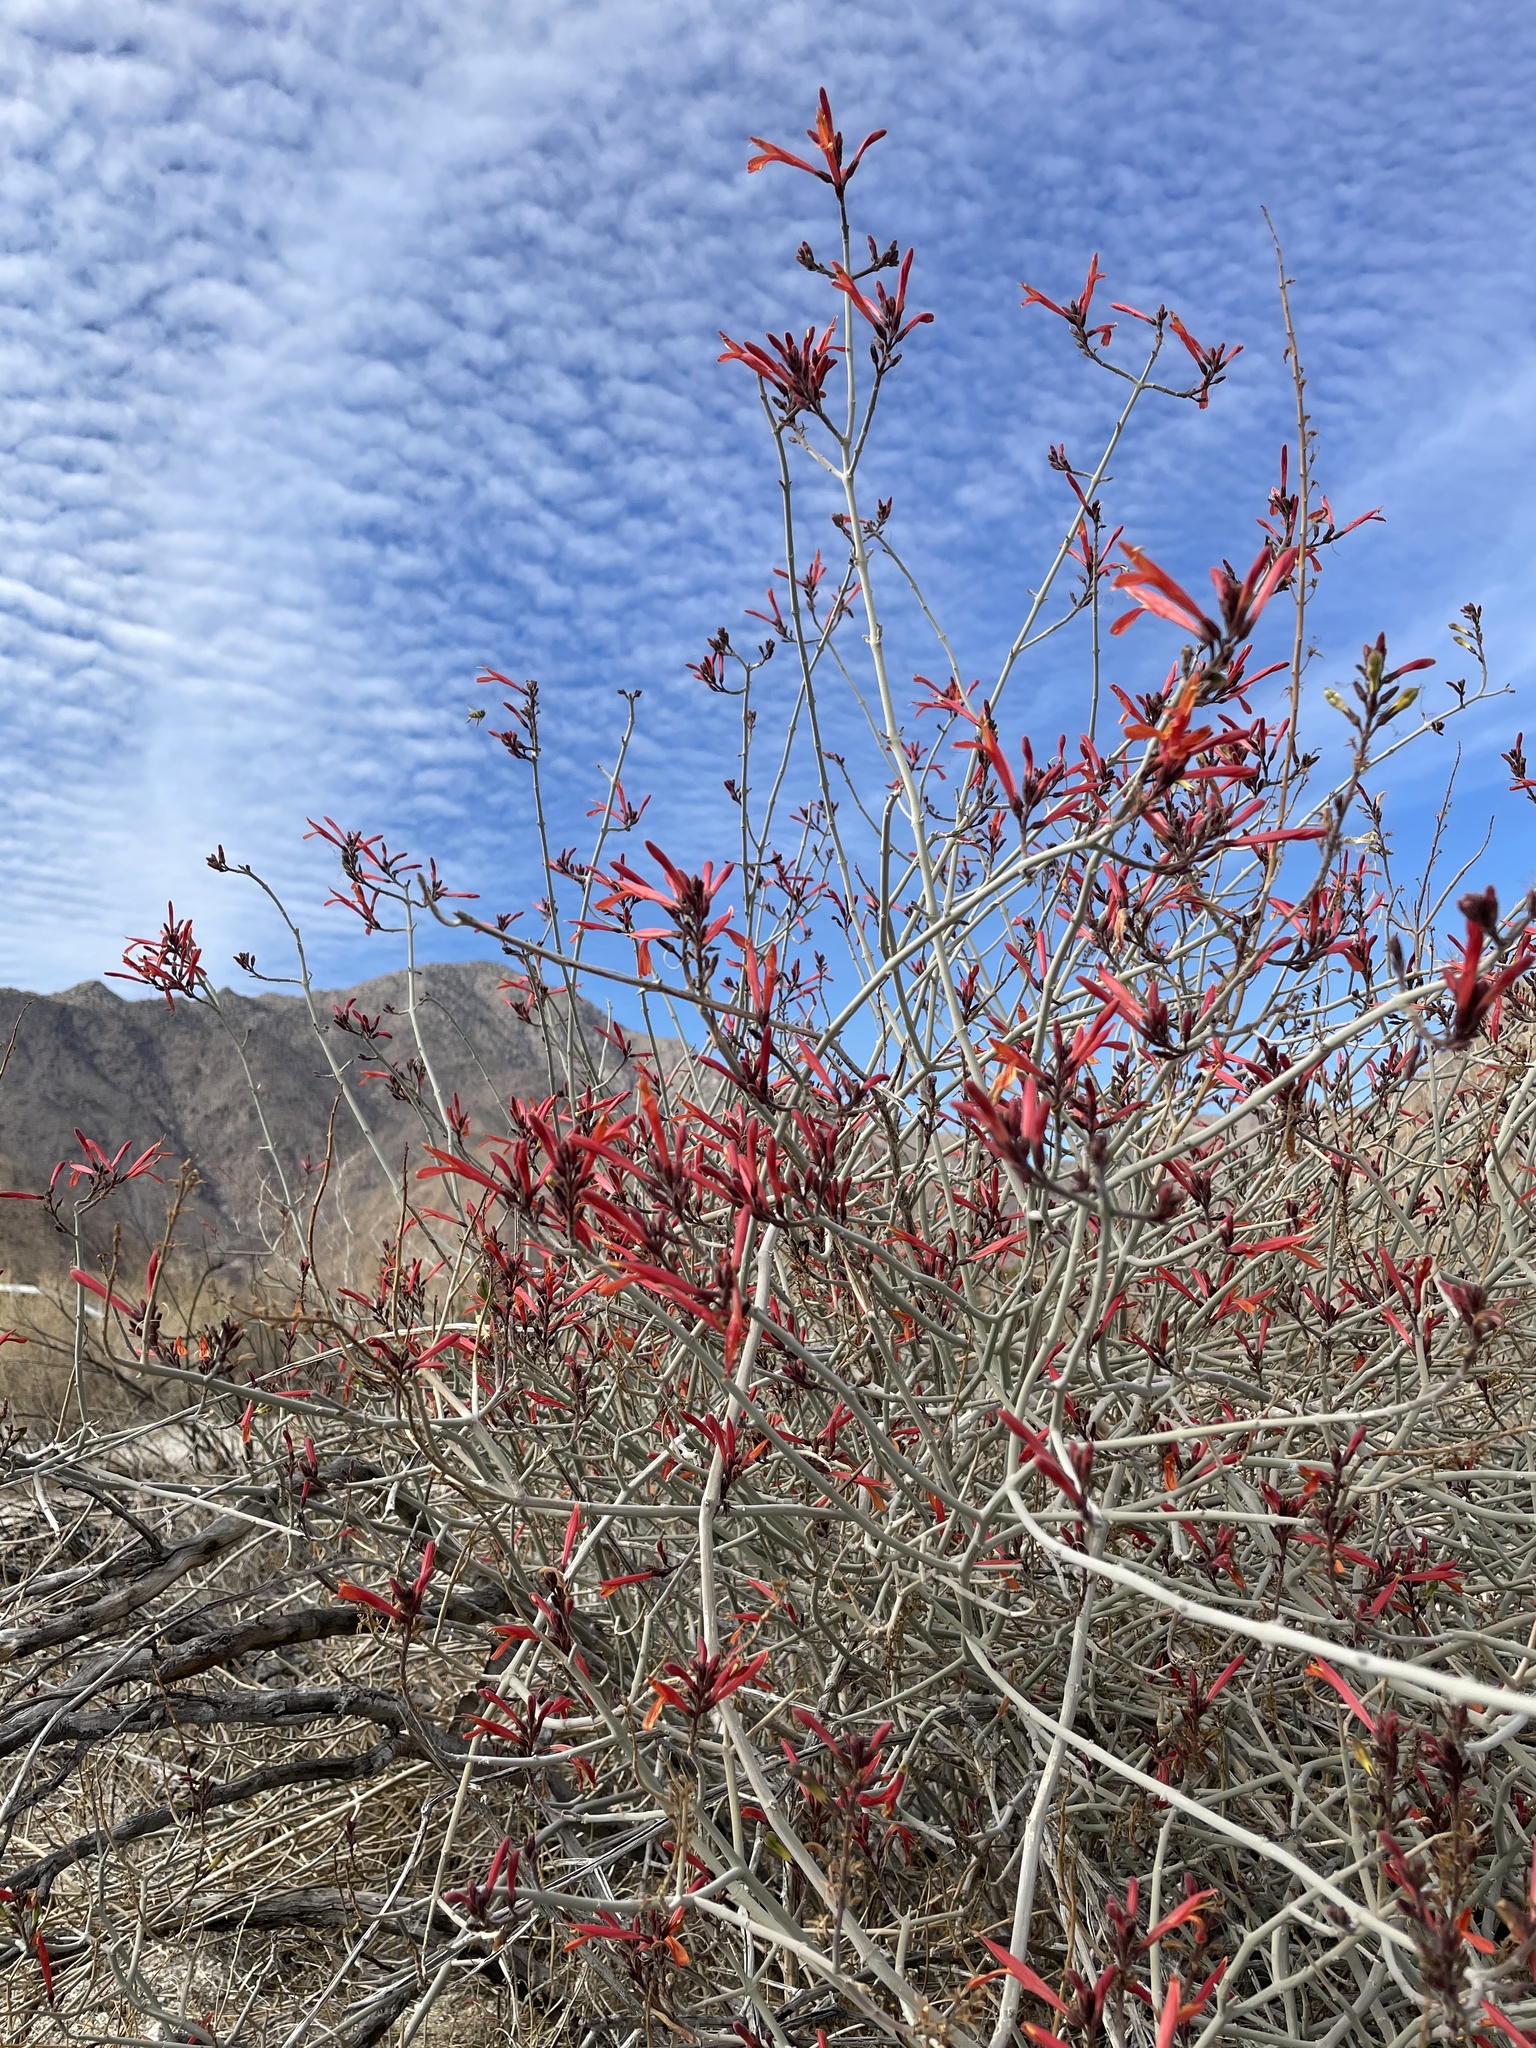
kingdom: Plantae
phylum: Tracheophyta
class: Magnoliopsida
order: Lamiales
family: Acanthaceae
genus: Justicia
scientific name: Justicia californica
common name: Chuparosa-honeysuckle
